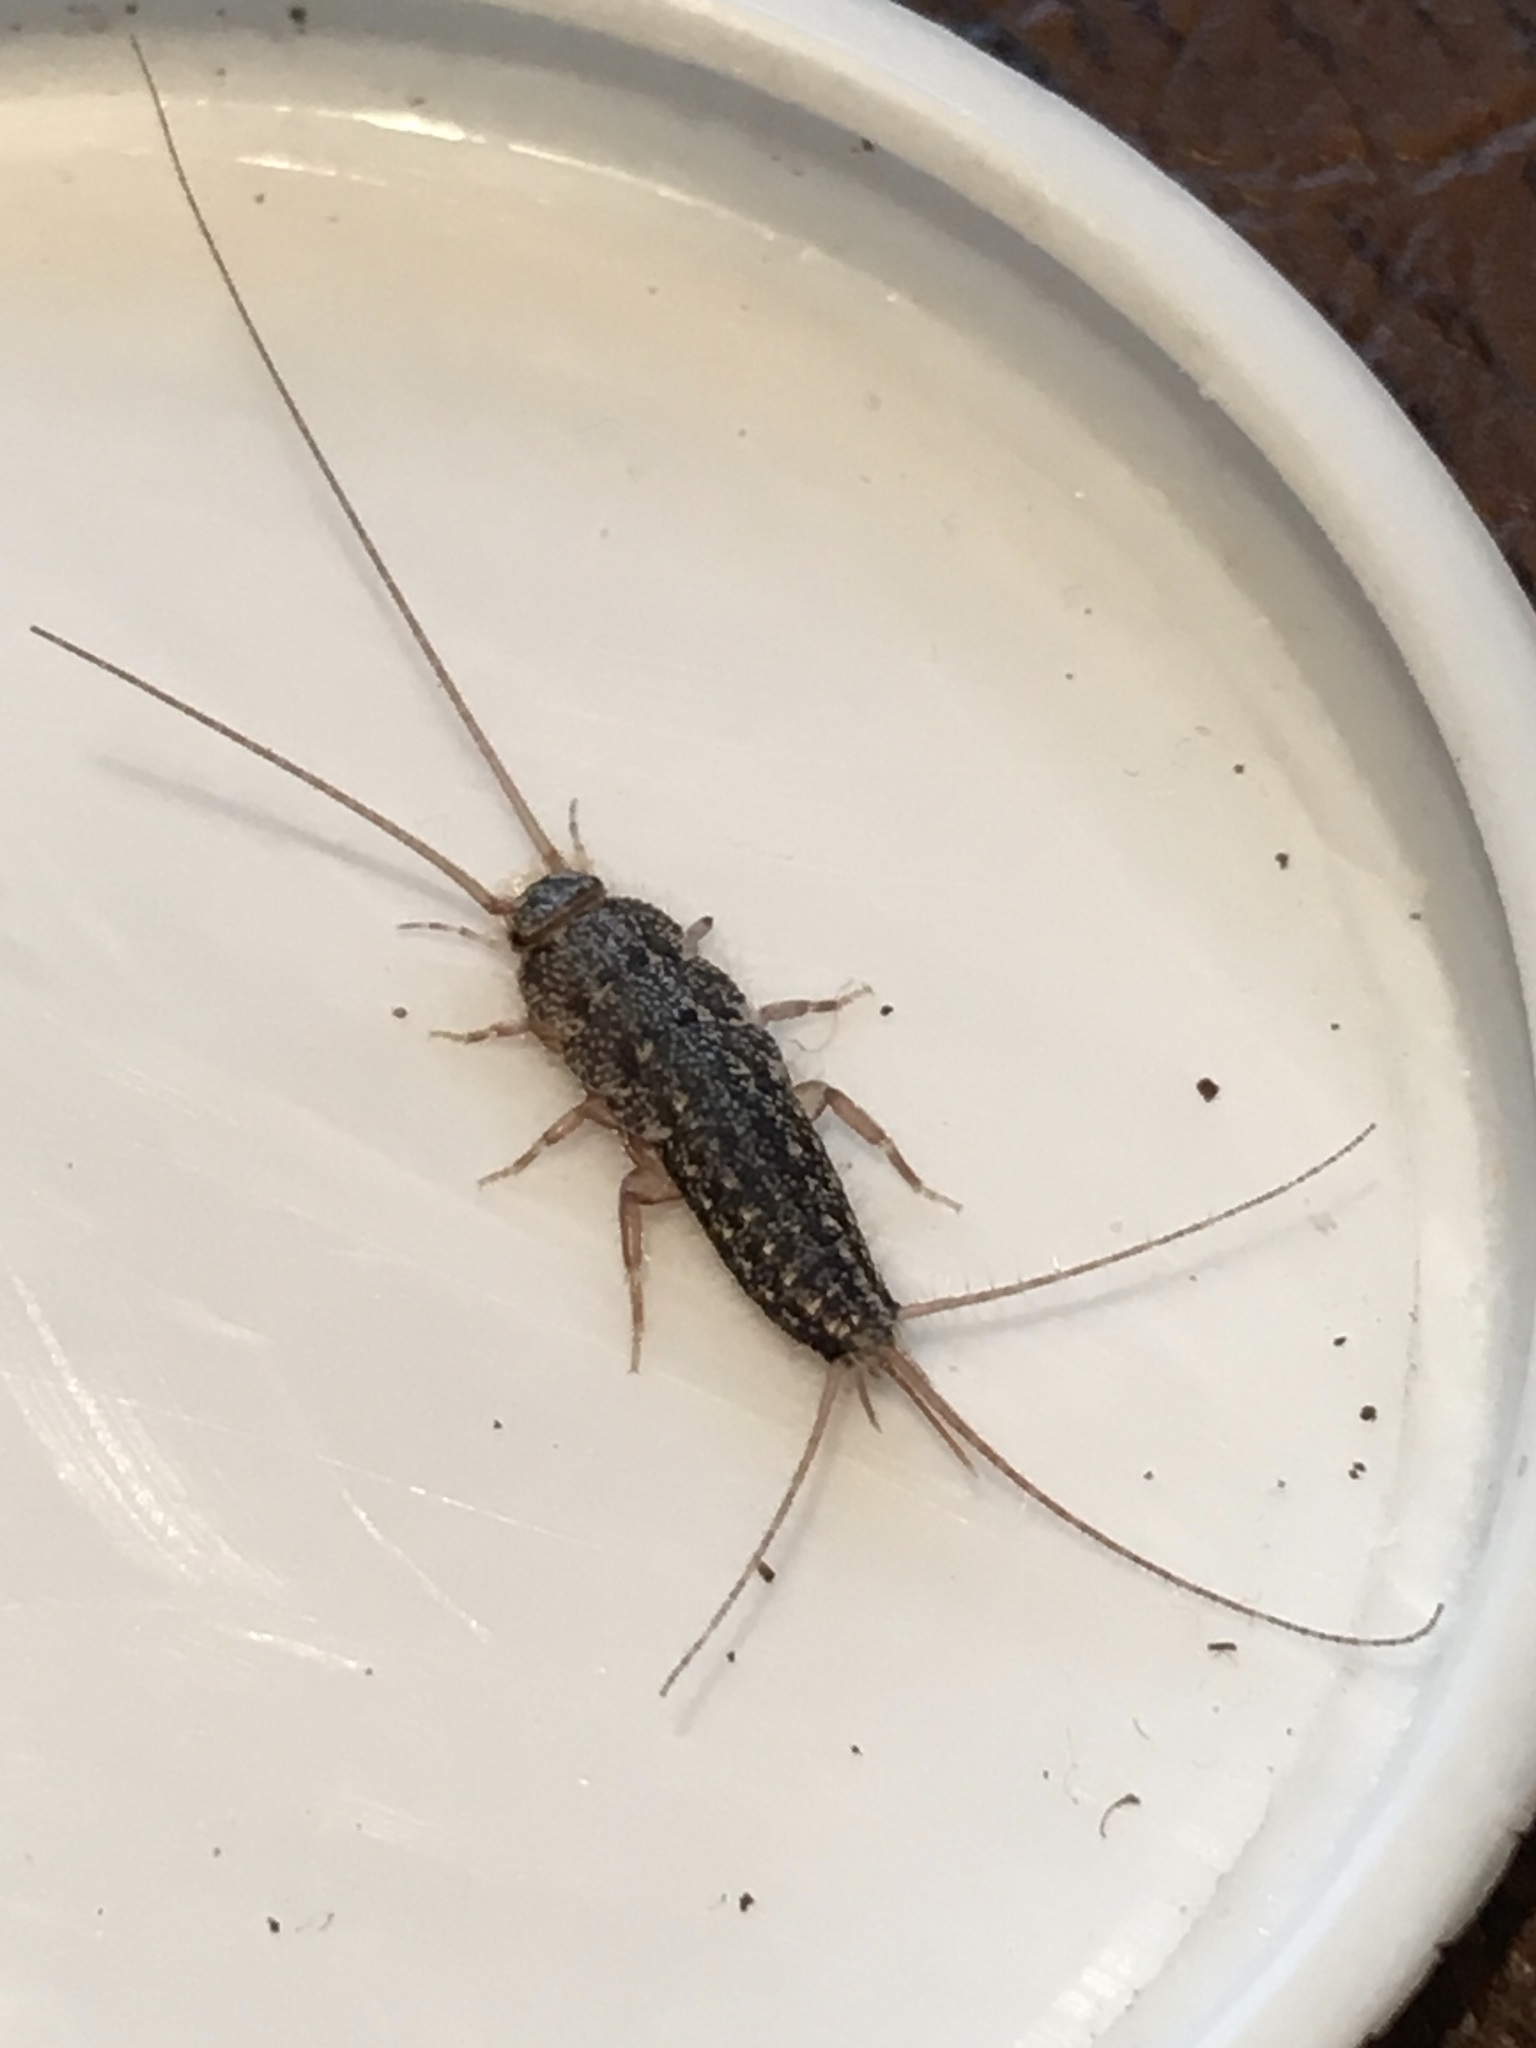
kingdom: Animalia
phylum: Arthropoda
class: Insecta
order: Zygentoma
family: Lepismatidae
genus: Ctenolepisma
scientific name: Ctenolepisma lineata
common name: Four-lined silverfish
